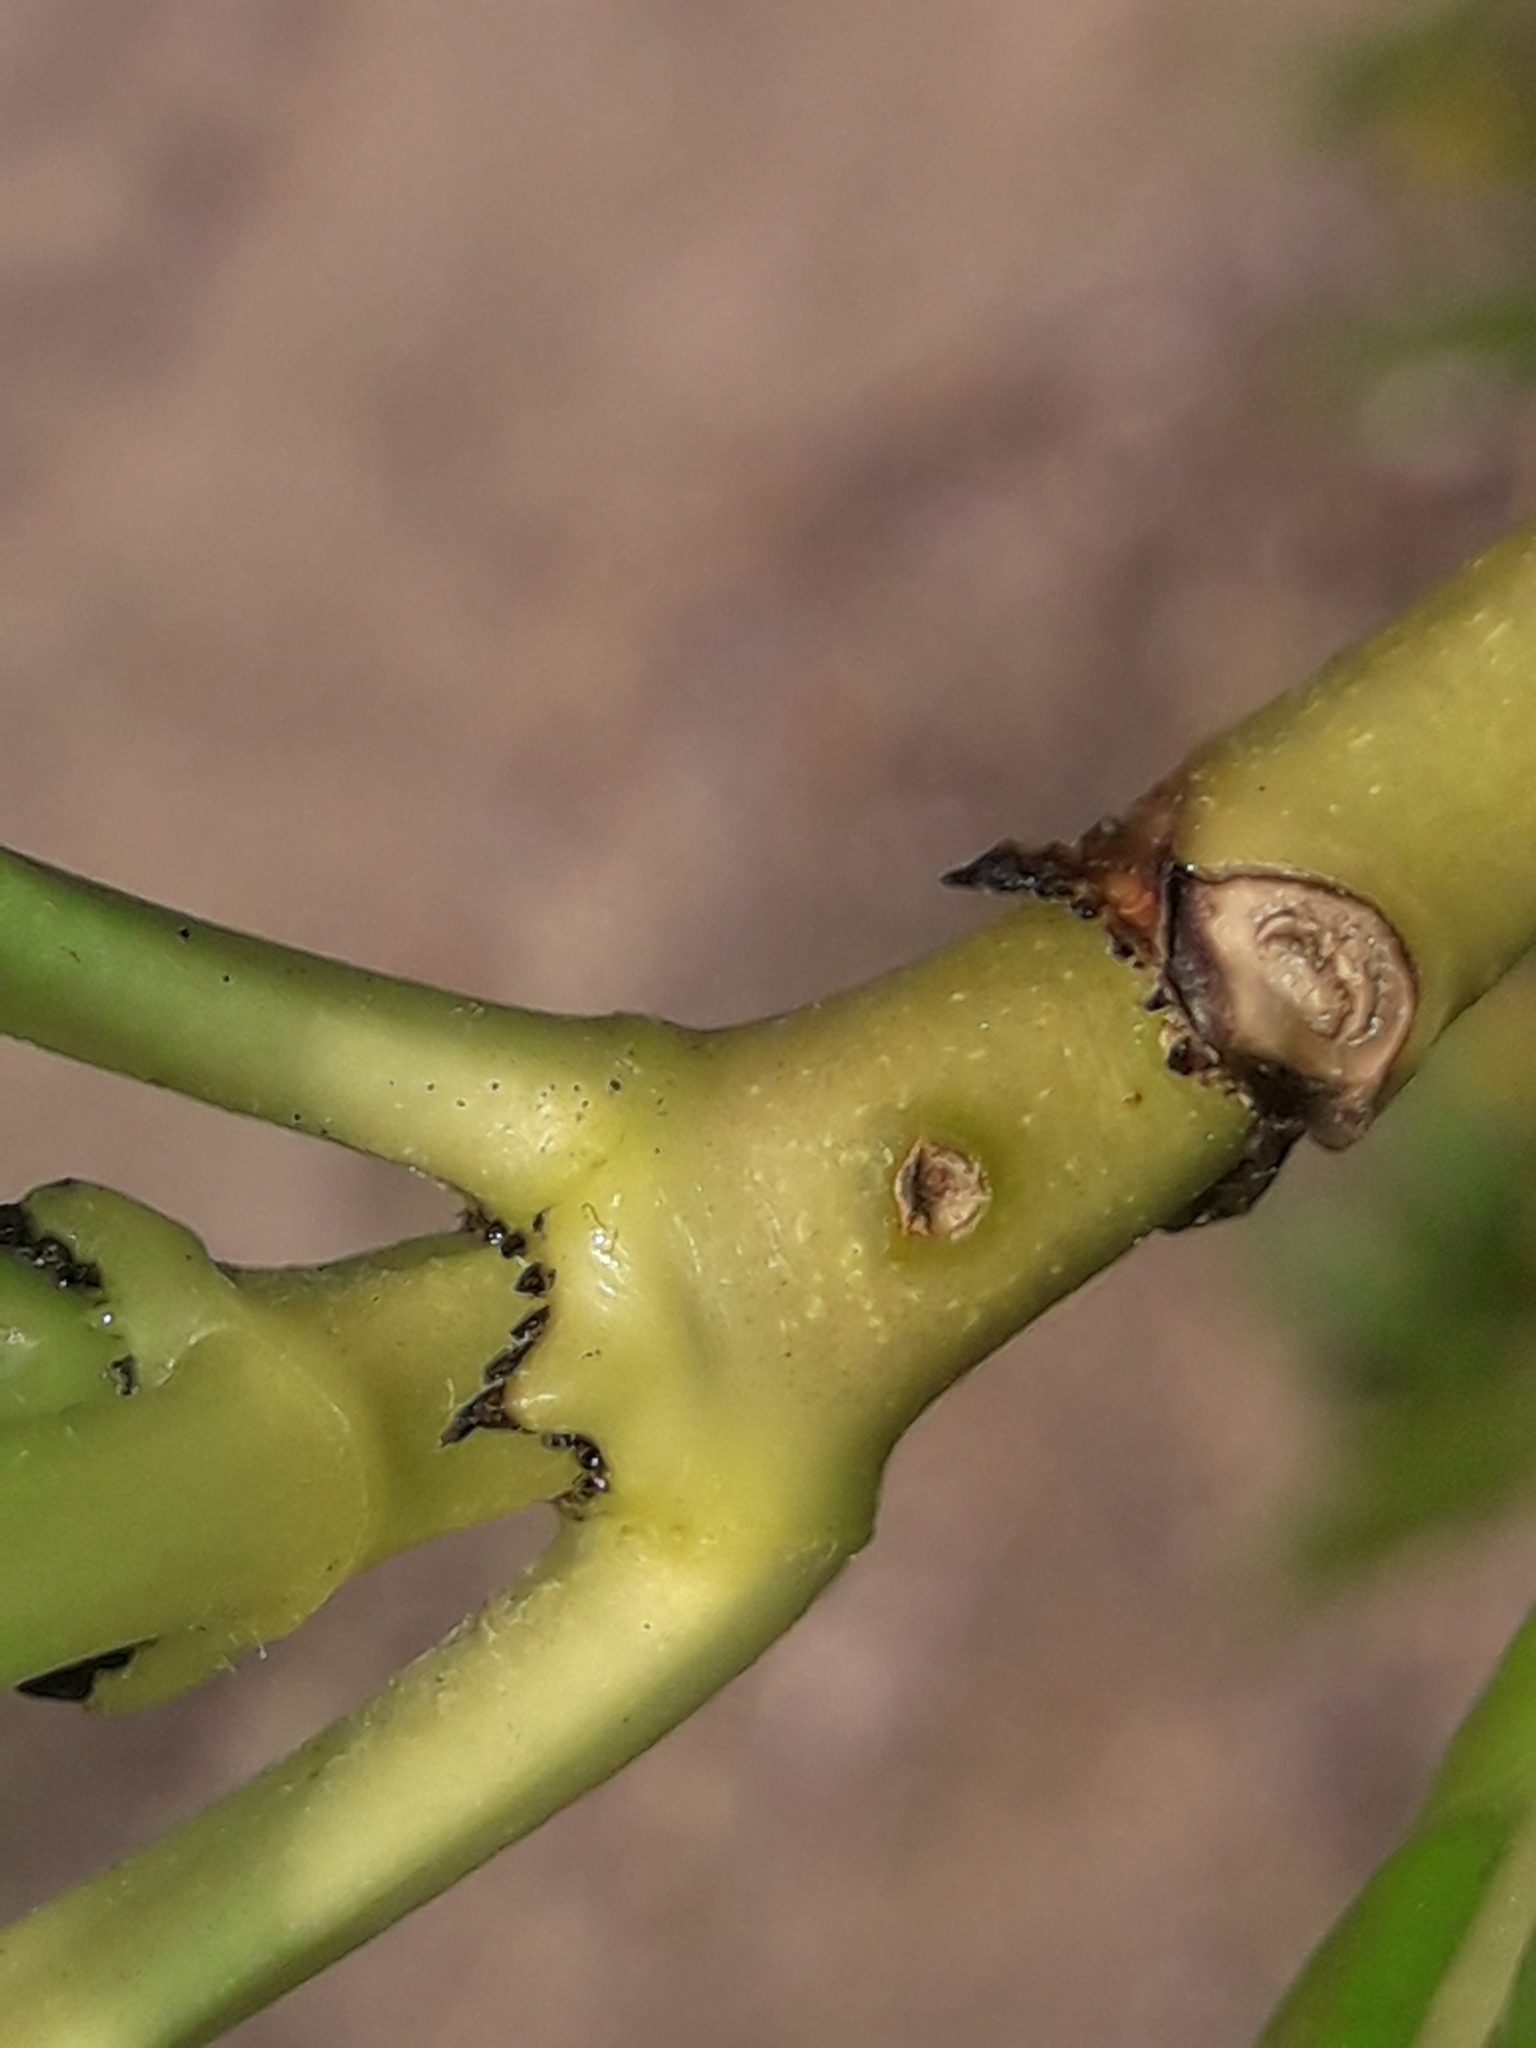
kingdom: Plantae
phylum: Tracheophyta
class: Magnoliopsida
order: Gentianales
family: Rubiaceae
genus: Coprosma
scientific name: Coprosma repens
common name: Tree bedstraw
